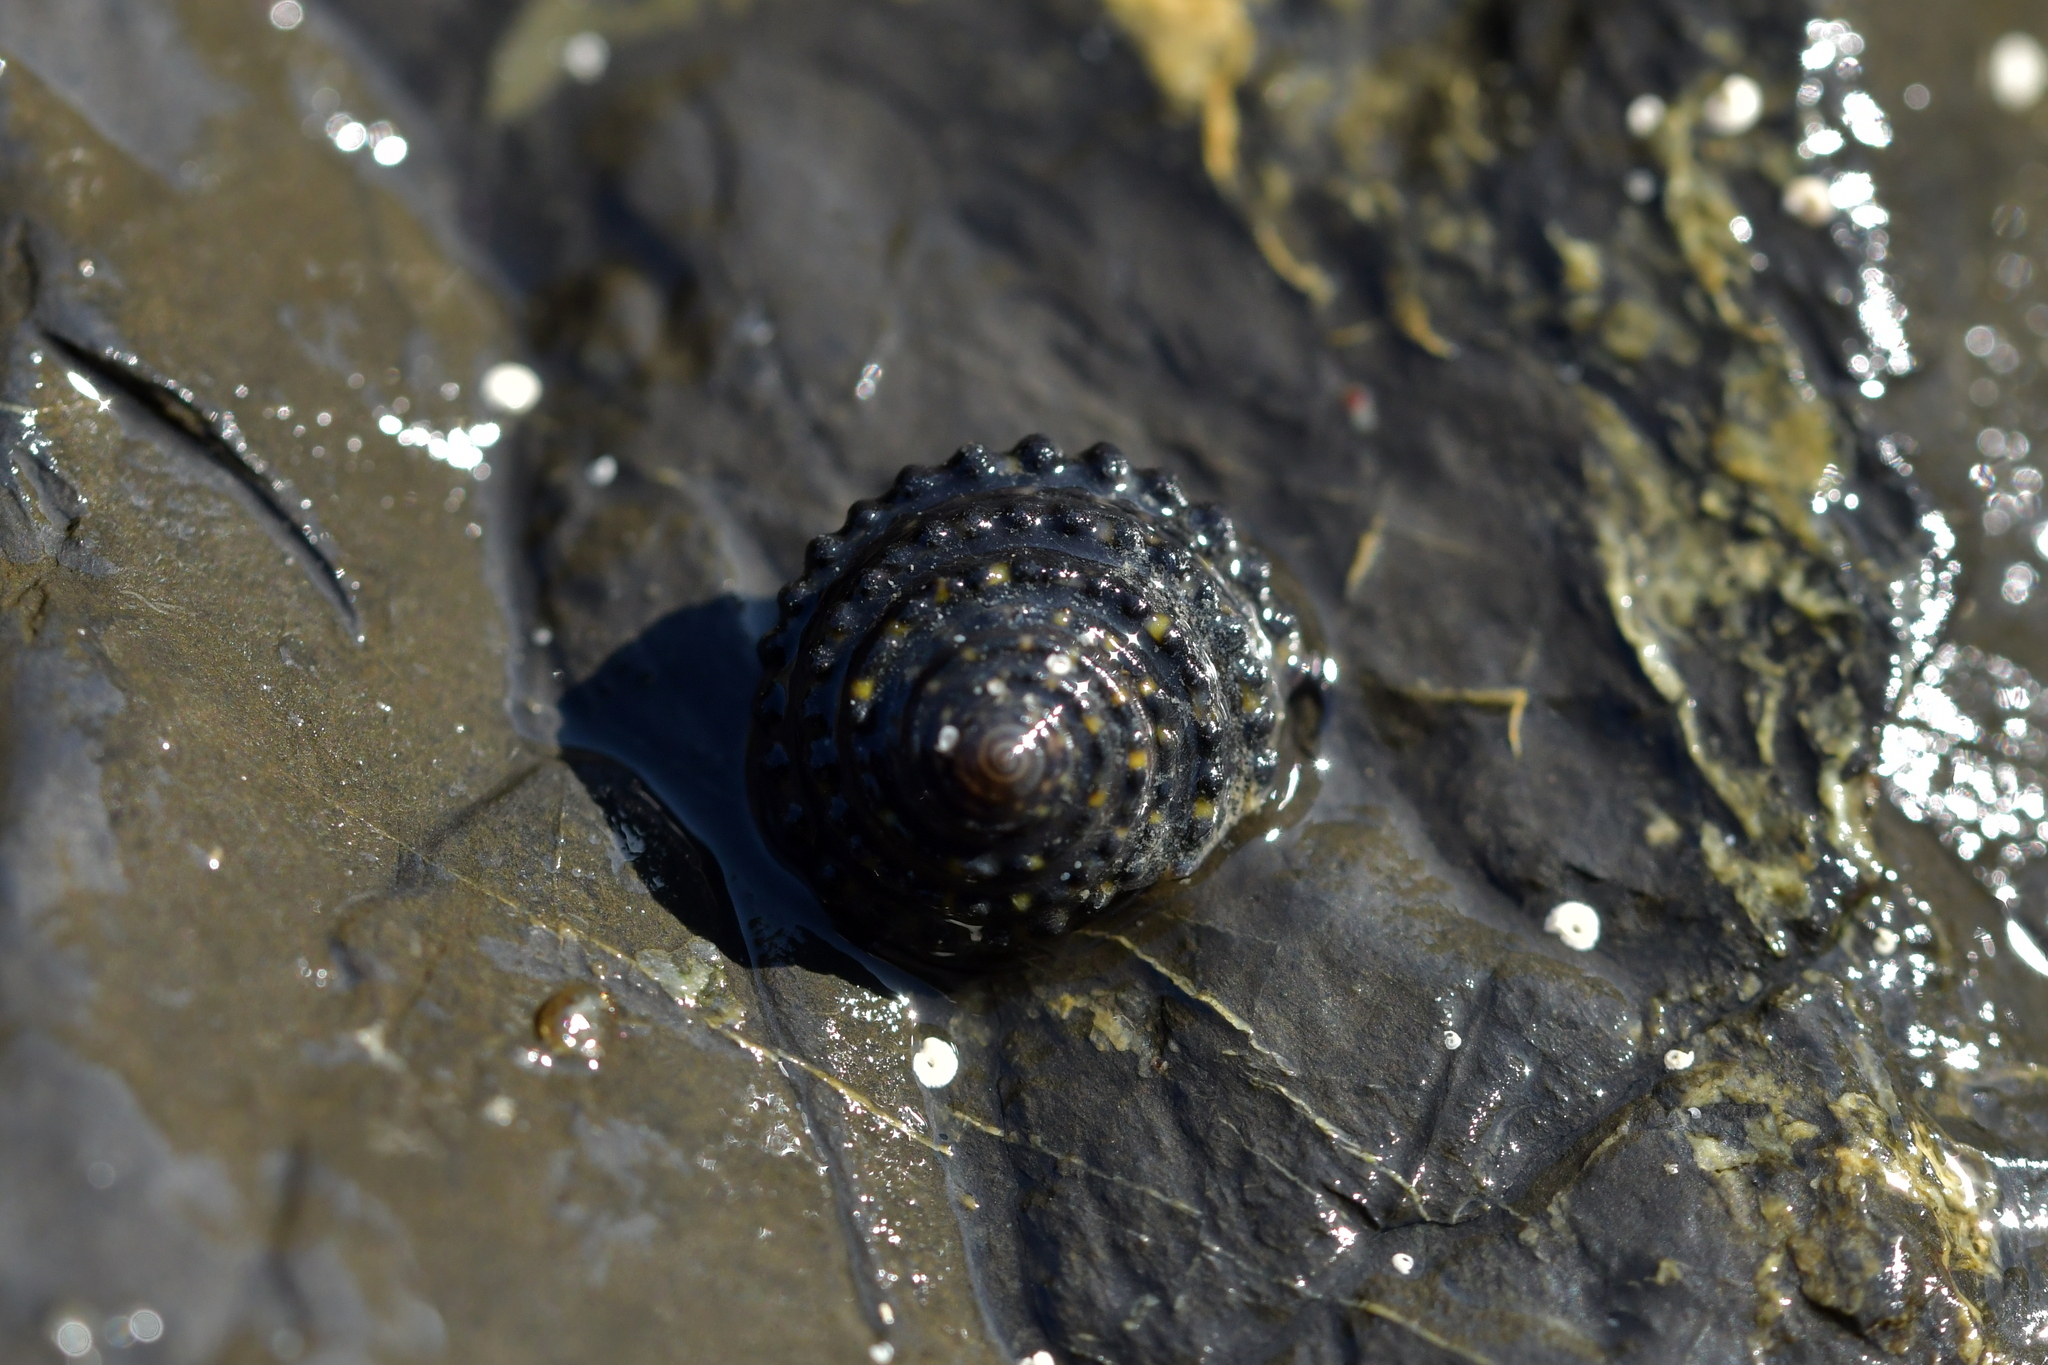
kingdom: Animalia
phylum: Mollusca
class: Gastropoda
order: Trochida
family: Trochidae
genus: Diloma
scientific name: Diloma bicanaliculatum
